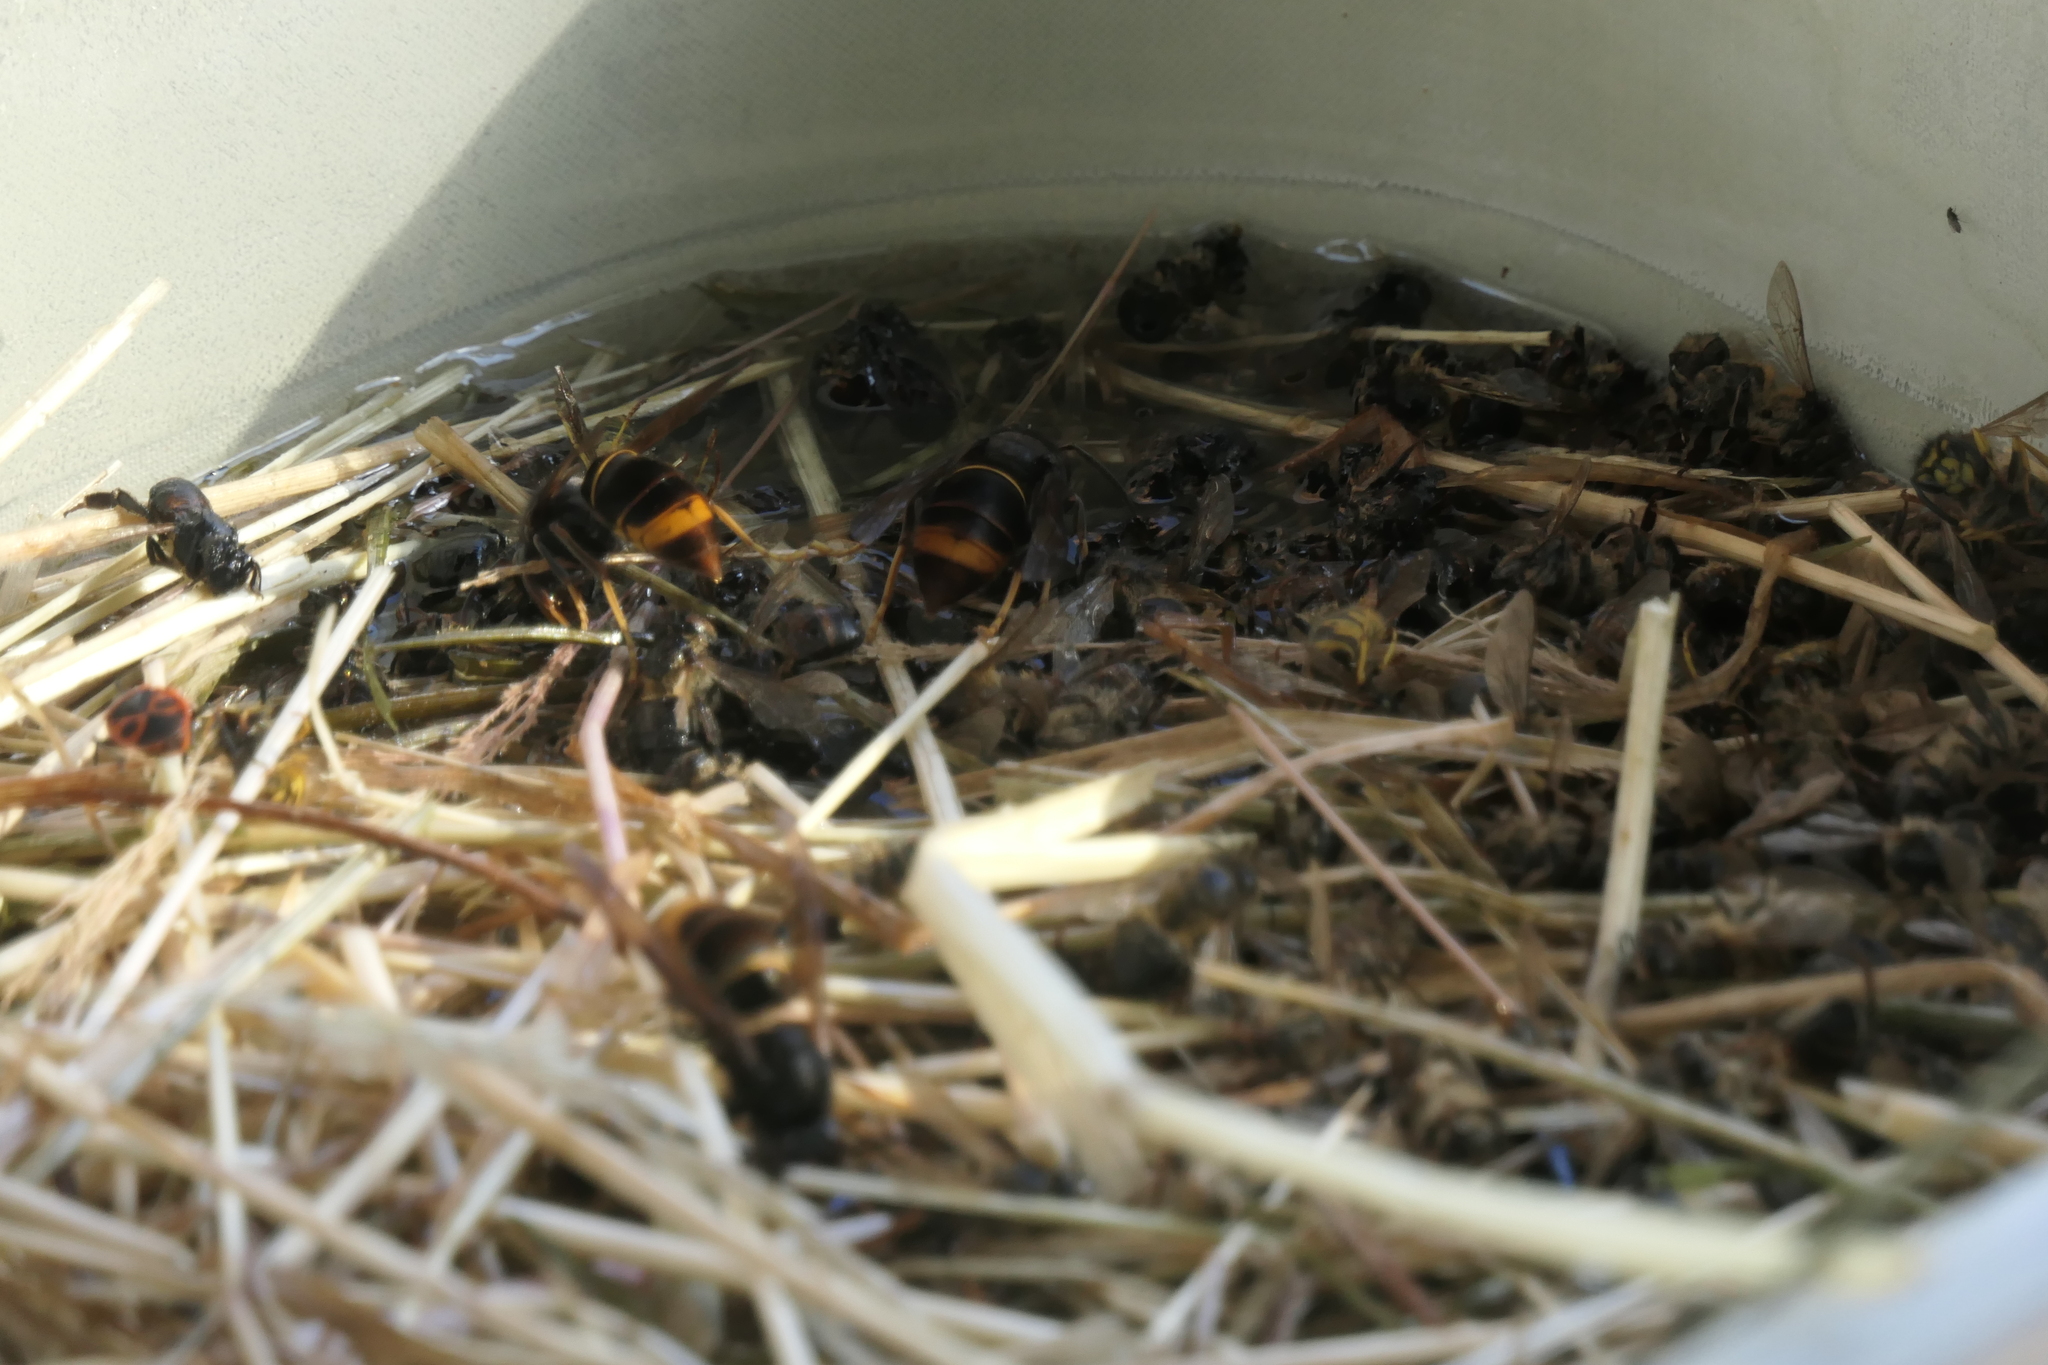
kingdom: Animalia
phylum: Arthropoda
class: Insecta
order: Hymenoptera
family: Vespidae
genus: Vespa
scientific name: Vespa velutina
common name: Asian hornet
